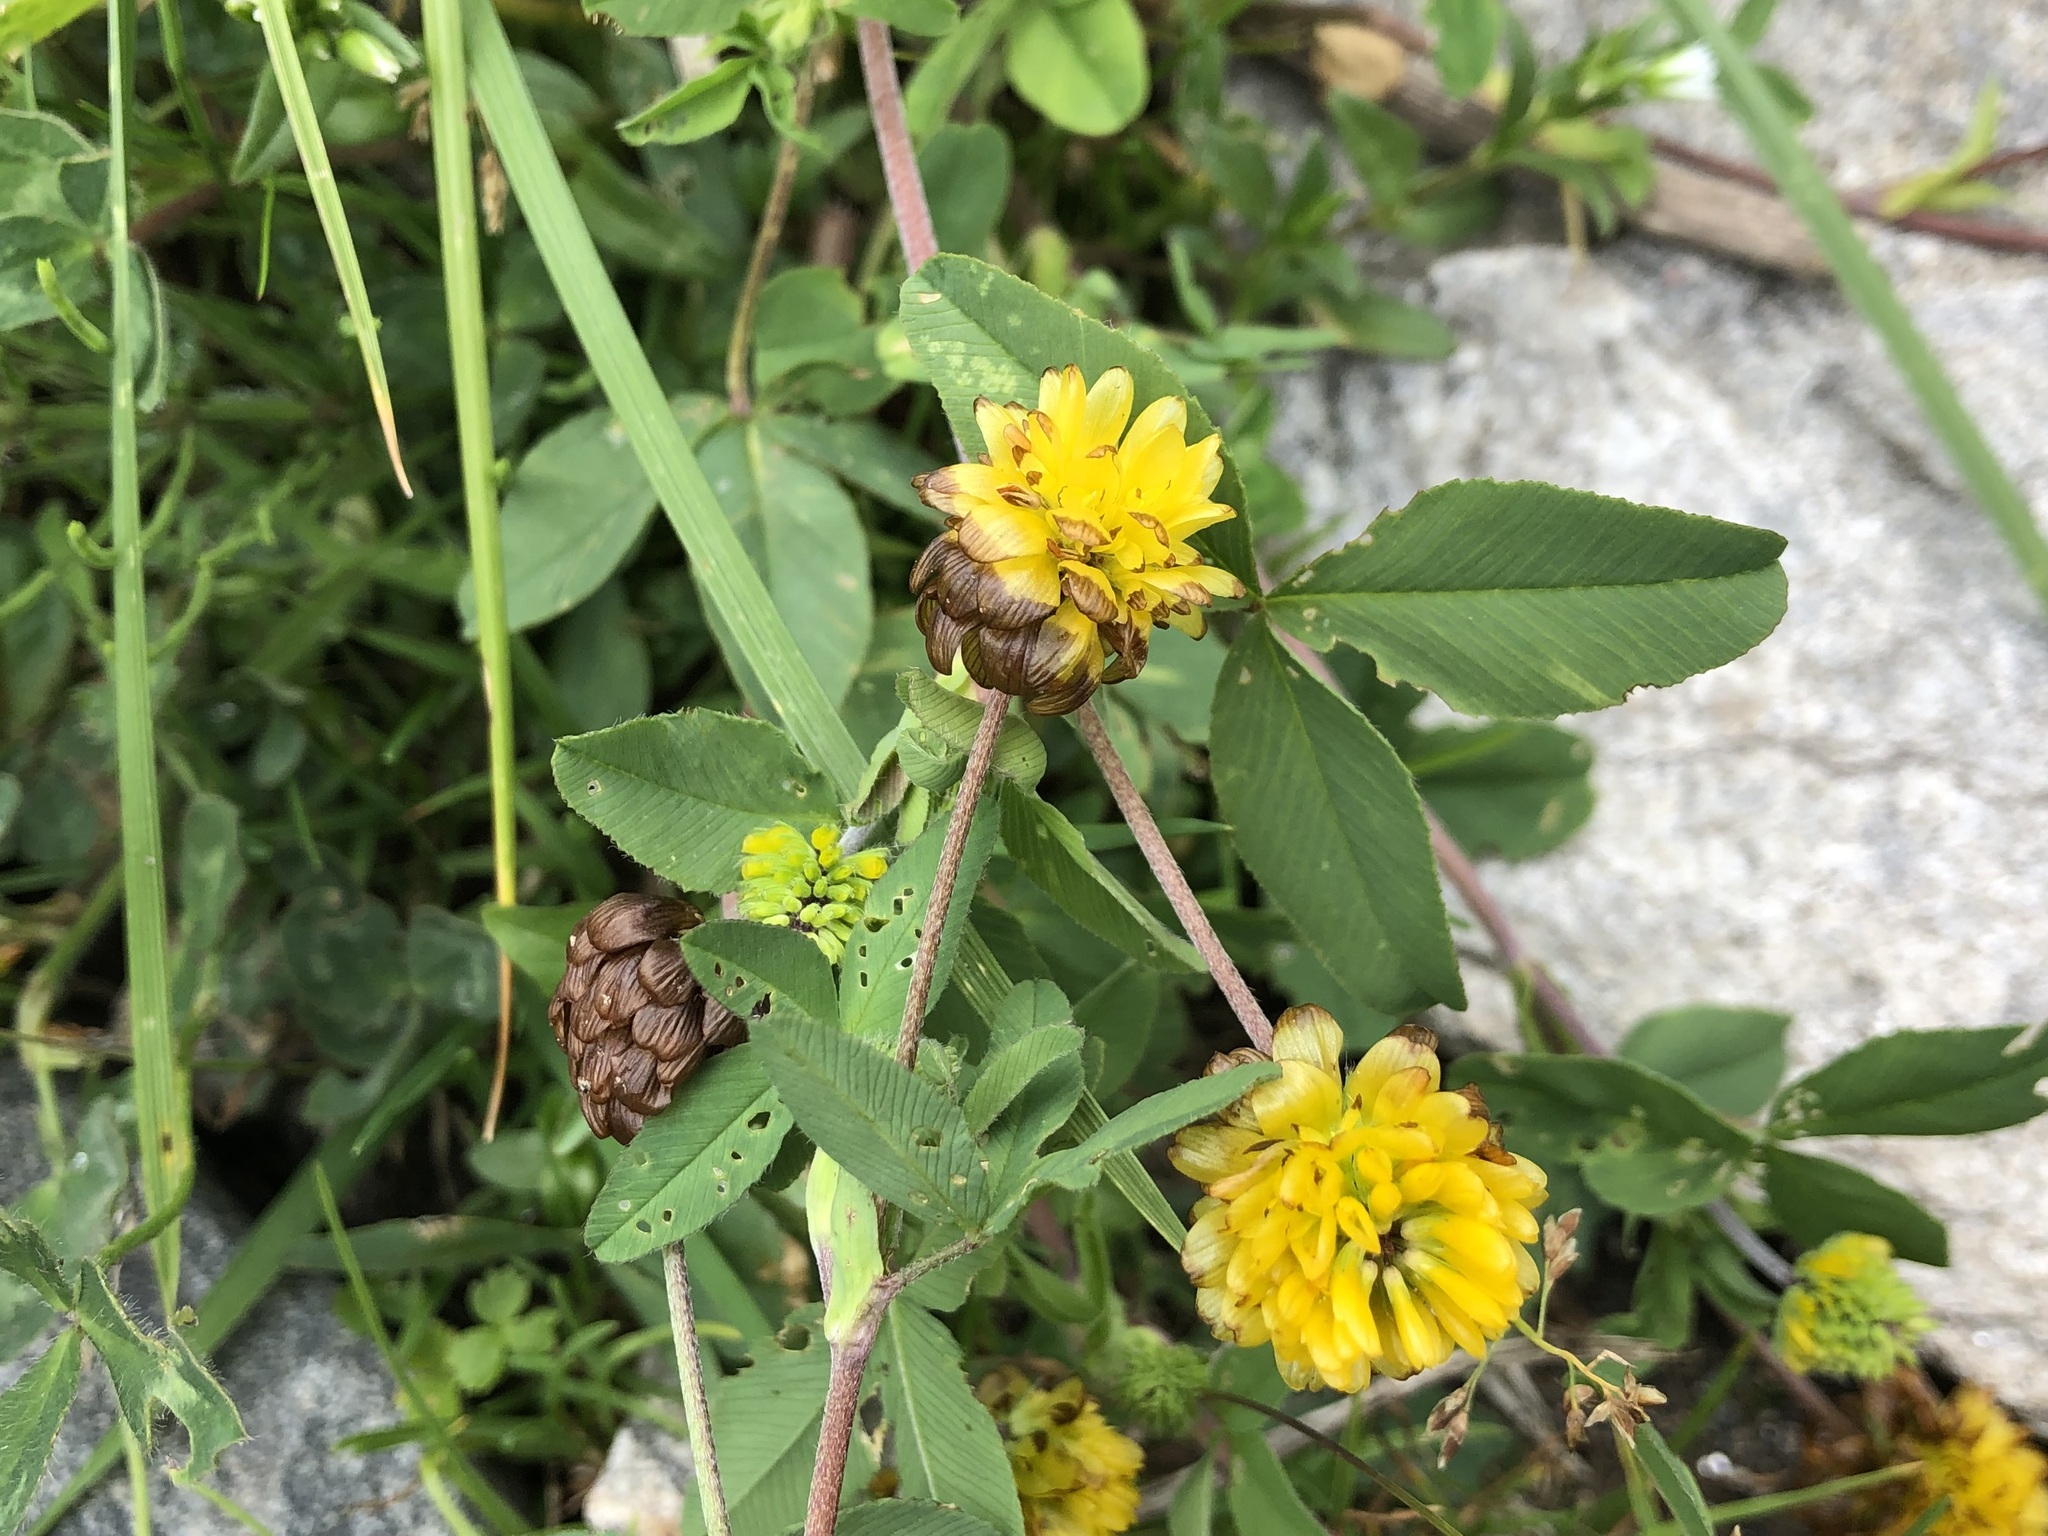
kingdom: Plantae
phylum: Tracheophyta
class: Magnoliopsida
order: Fabales
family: Fabaceae
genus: Trifolium
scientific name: Trifolium badium
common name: Brown clover
